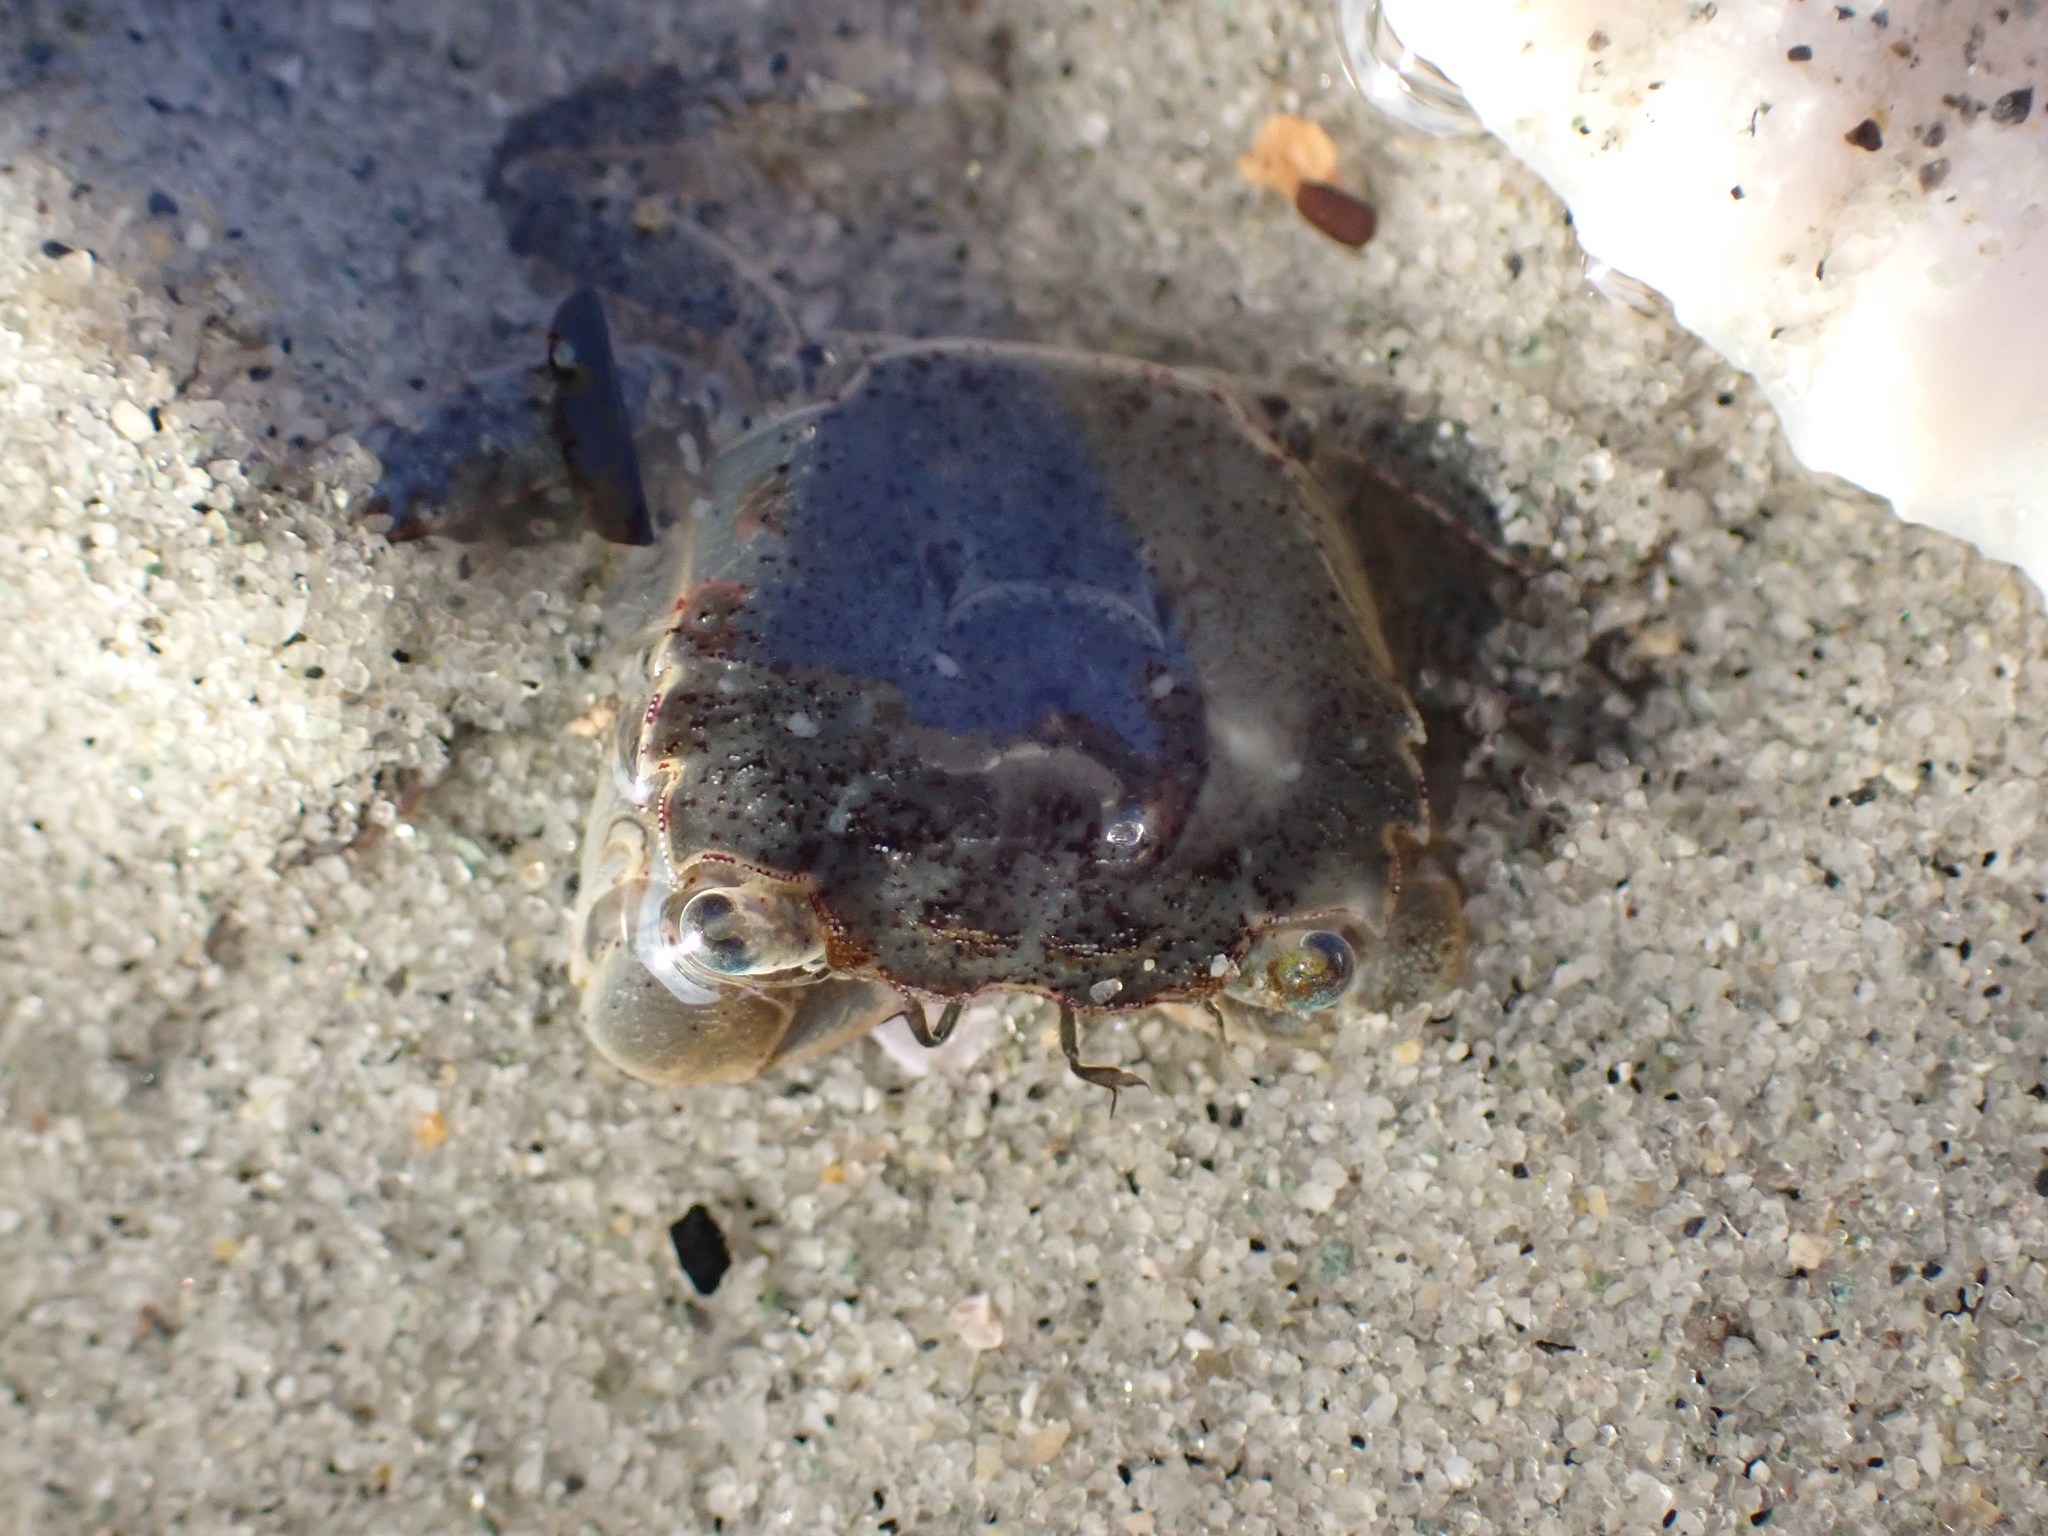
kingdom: Animalia
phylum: Arthropoda
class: Malacostraca
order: Decapoda
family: Varunidae
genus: Hemigrapsus
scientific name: Hemigrapsus oregonensis
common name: Yellow shore crab
